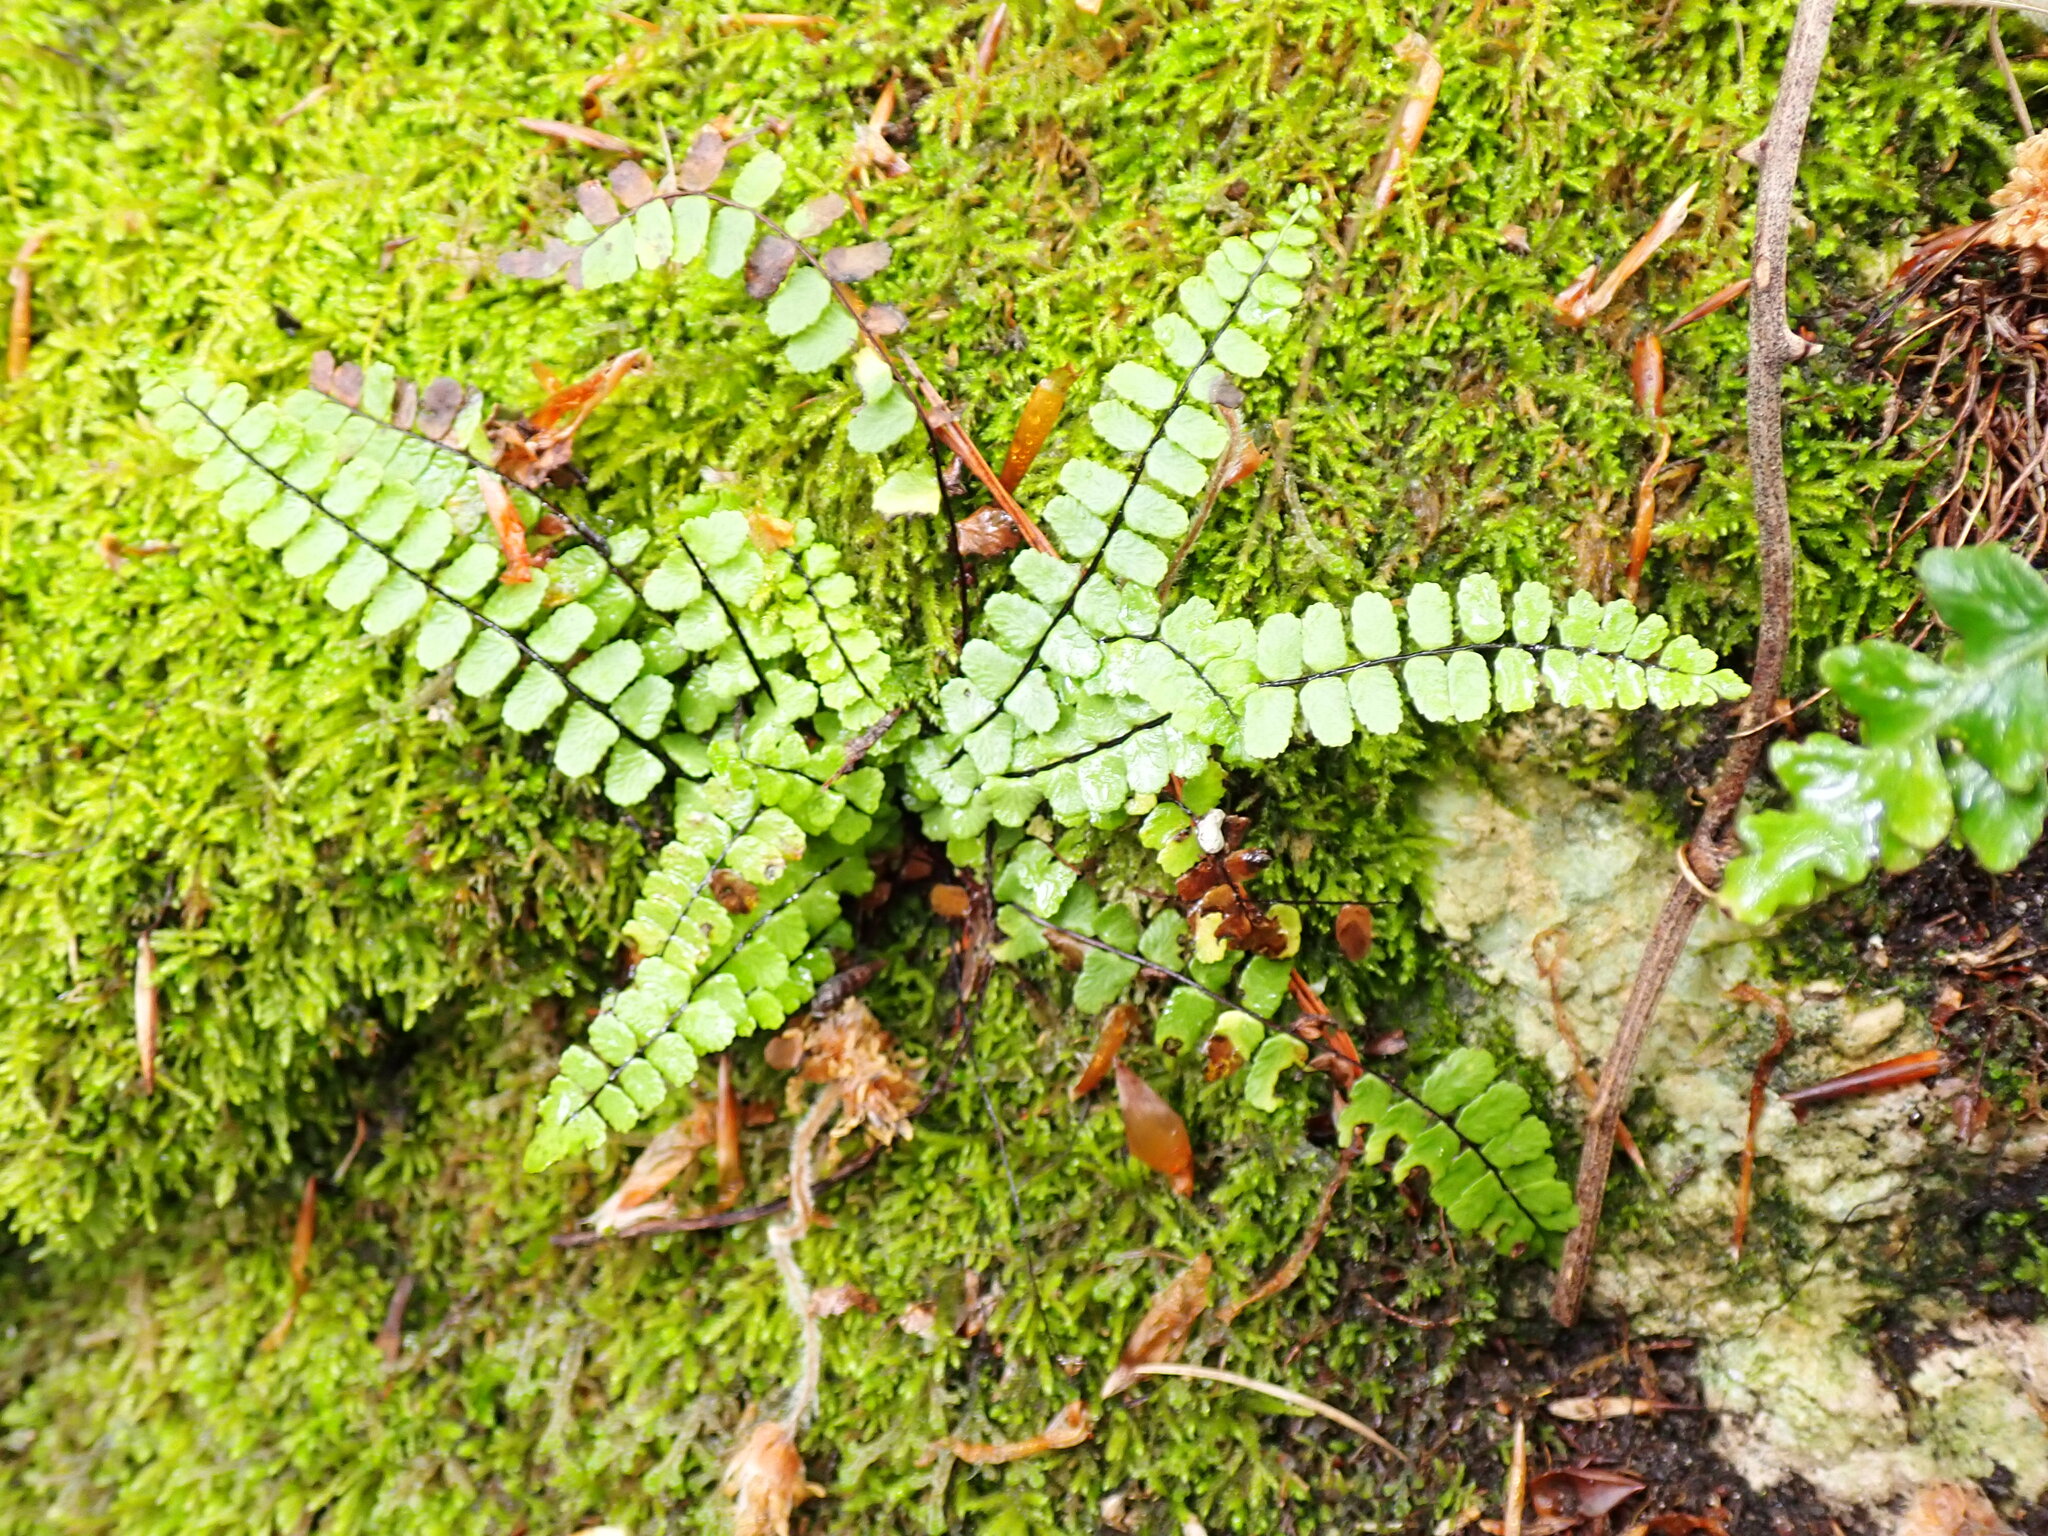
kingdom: Plantae
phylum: Tracheophyta
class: Polypodiopsida
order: Polypodiales
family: Aspleniaceae
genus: Asplenium
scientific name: Asplenium trichomanes
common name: Maidenhair spleenwort
